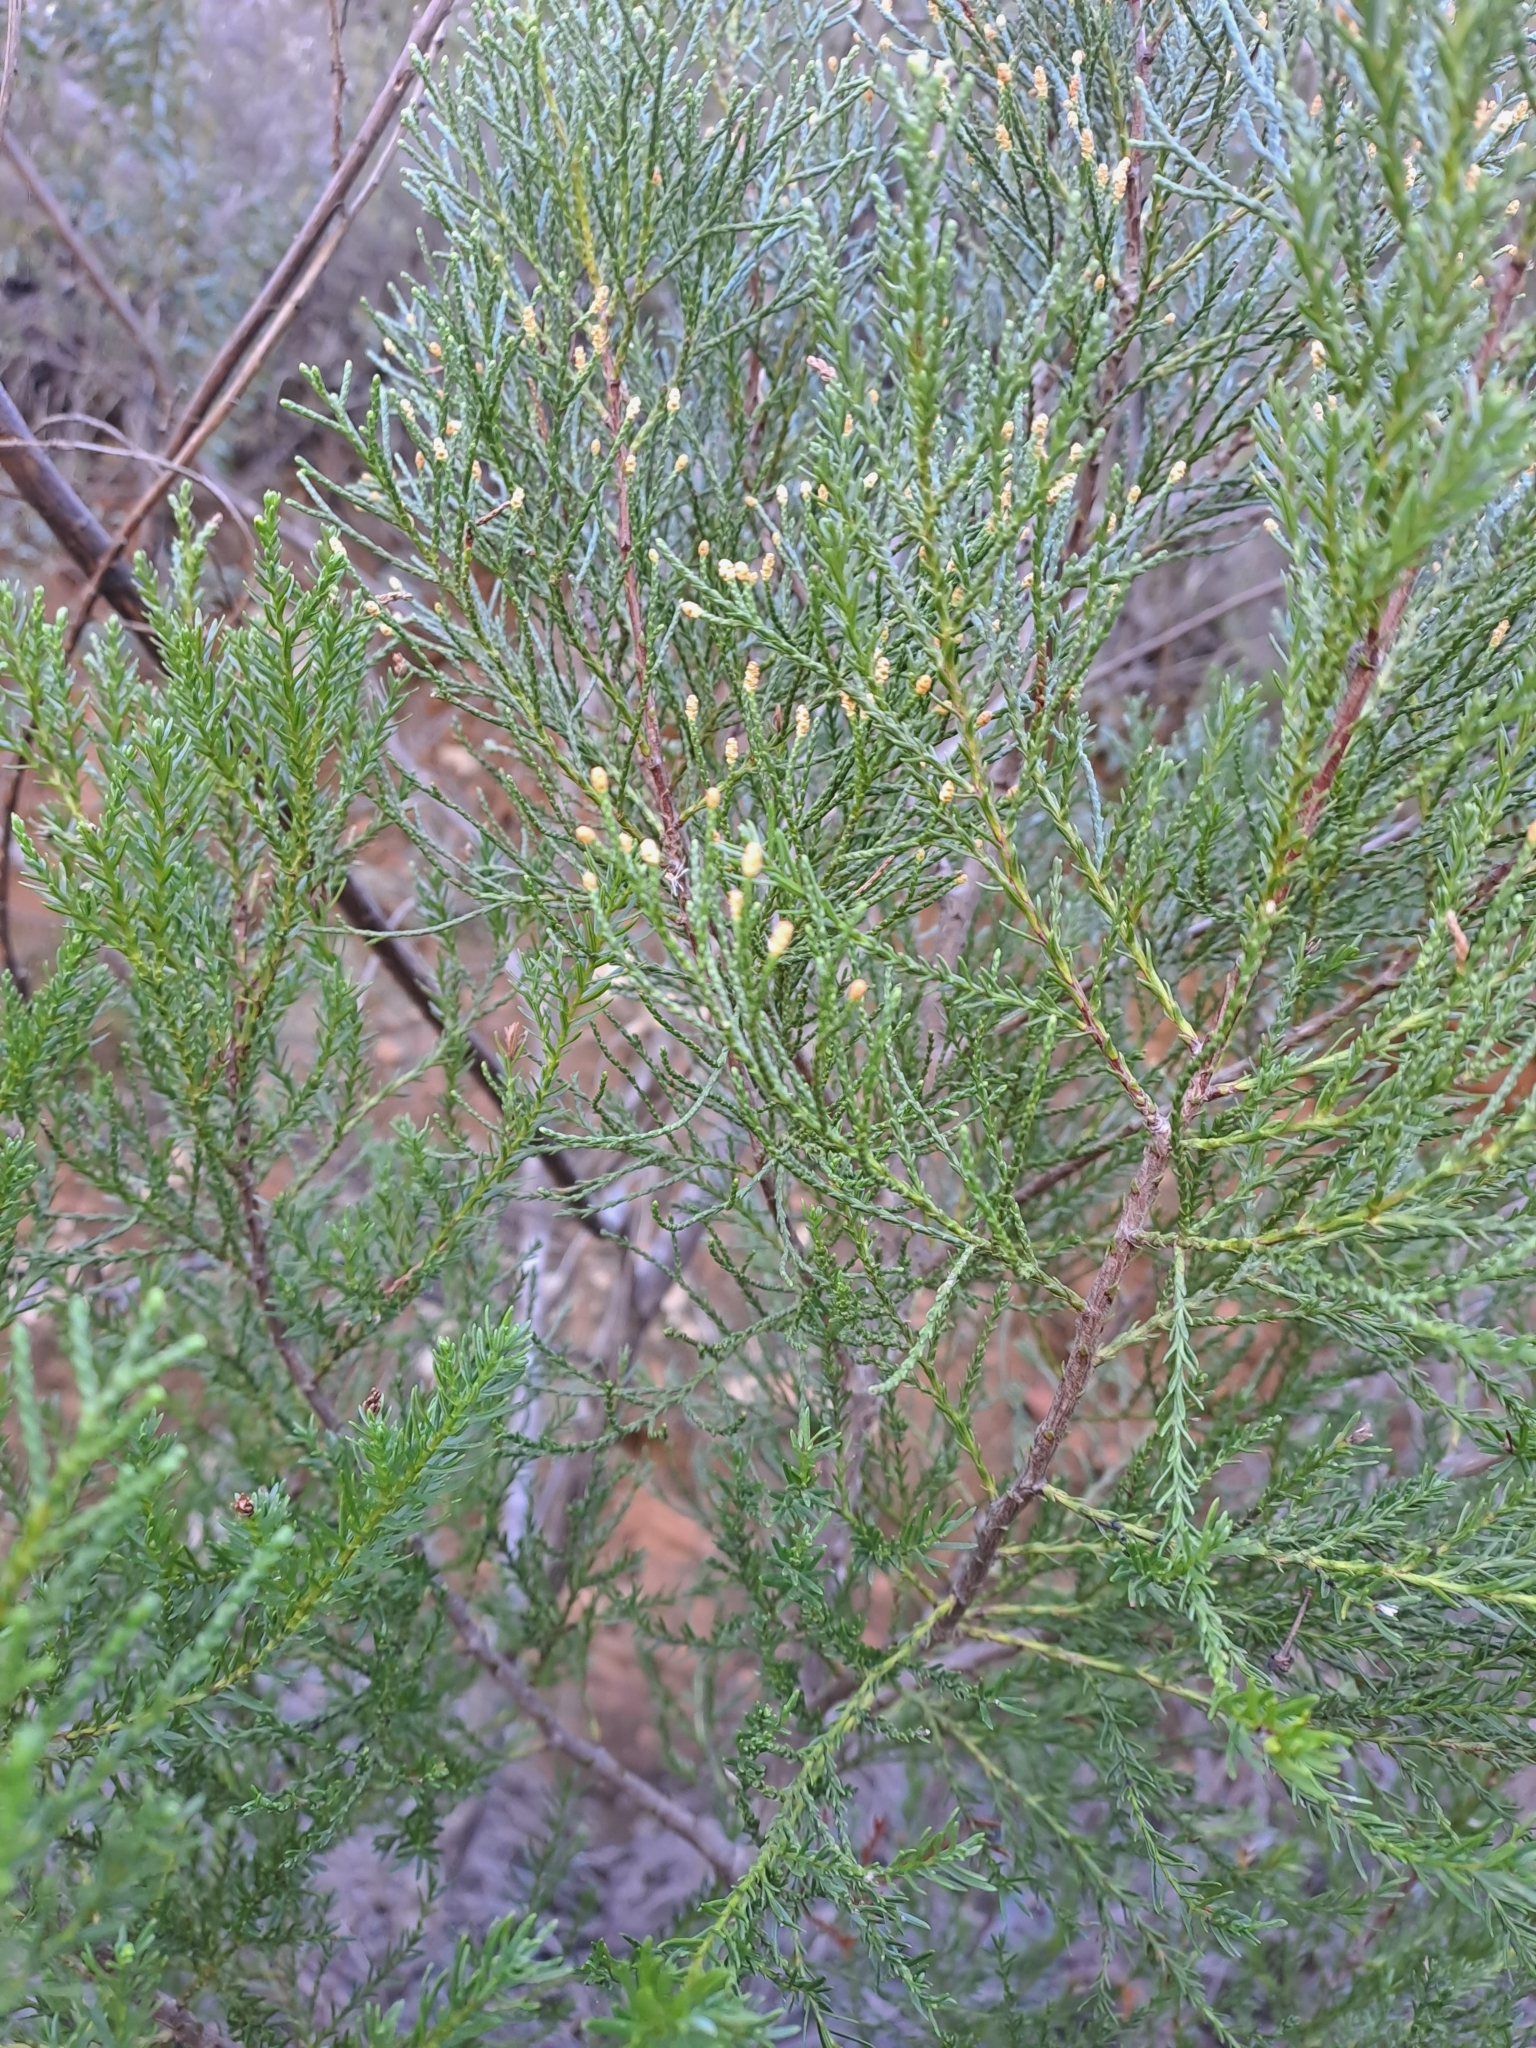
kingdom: Plantae
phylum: Tracheophyta
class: Pinopsida
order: Pinales
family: Cupressaceae
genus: Widdringtonia
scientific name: Widdringtonia nodiflora
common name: Cape cypress
